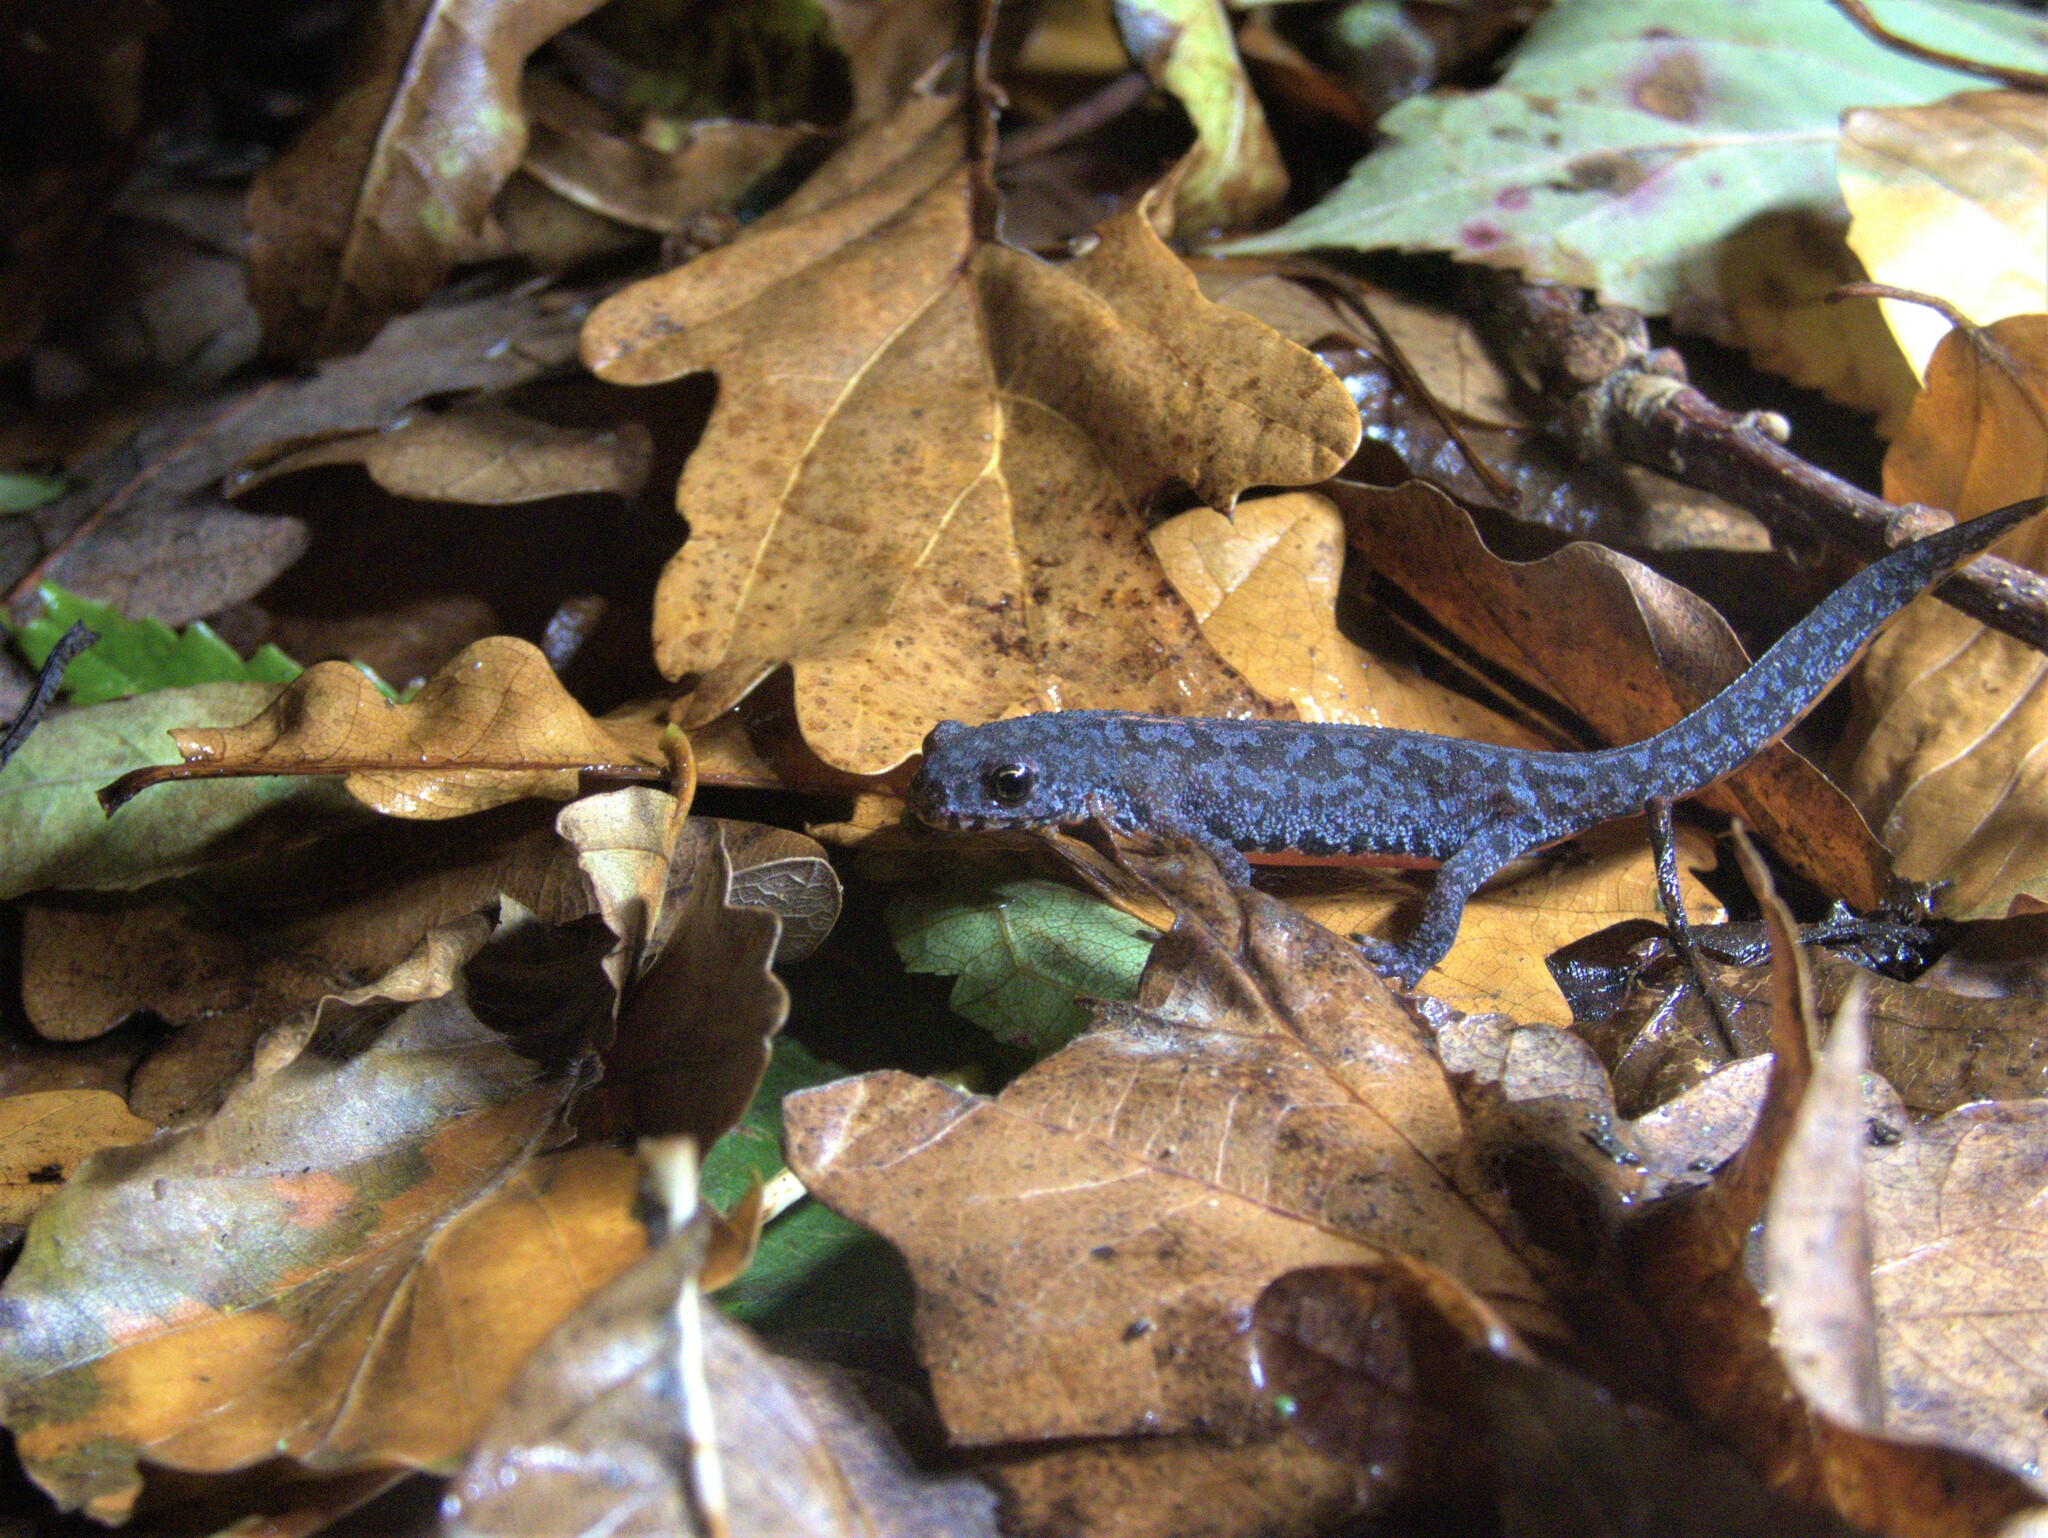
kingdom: Animalia
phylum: Chordata
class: Amphibia
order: Caudata
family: Salamandridae
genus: Ichthyosaura
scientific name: Ichthyosaura alpestris
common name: Alpine newt
